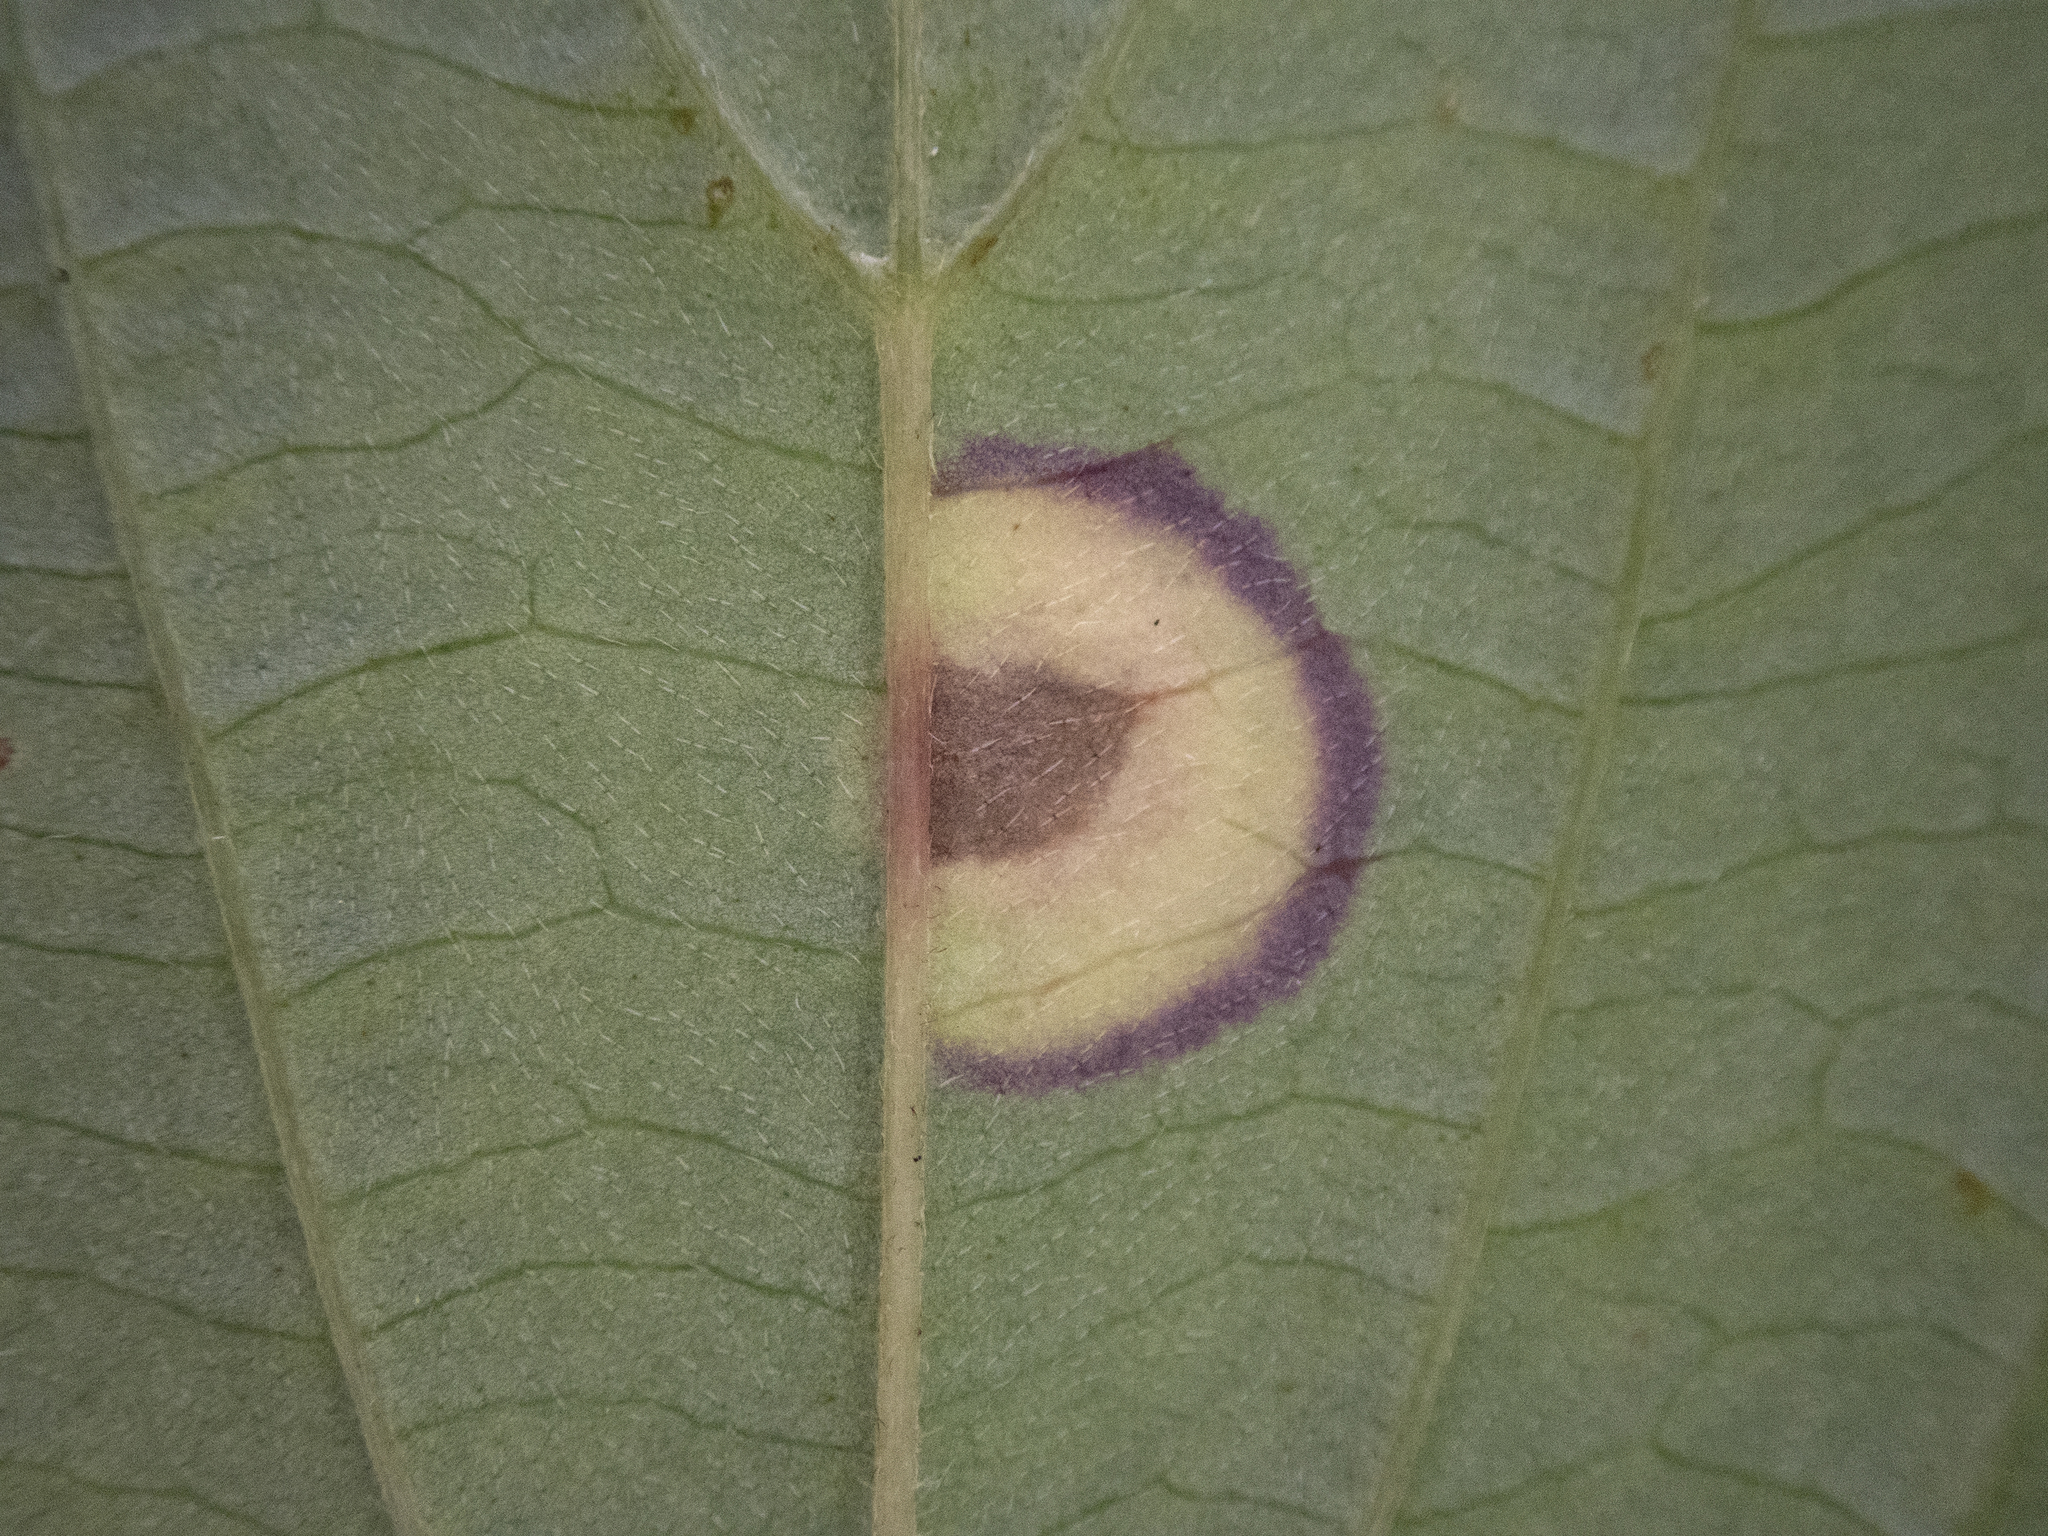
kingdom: Animalia
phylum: Arthropoda
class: Insecta
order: Diptera
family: Cecidomyiidae
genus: Parallelodiplosis
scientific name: Parallelodiplosis subtruncata
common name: Dogwood eyespot gall midge
